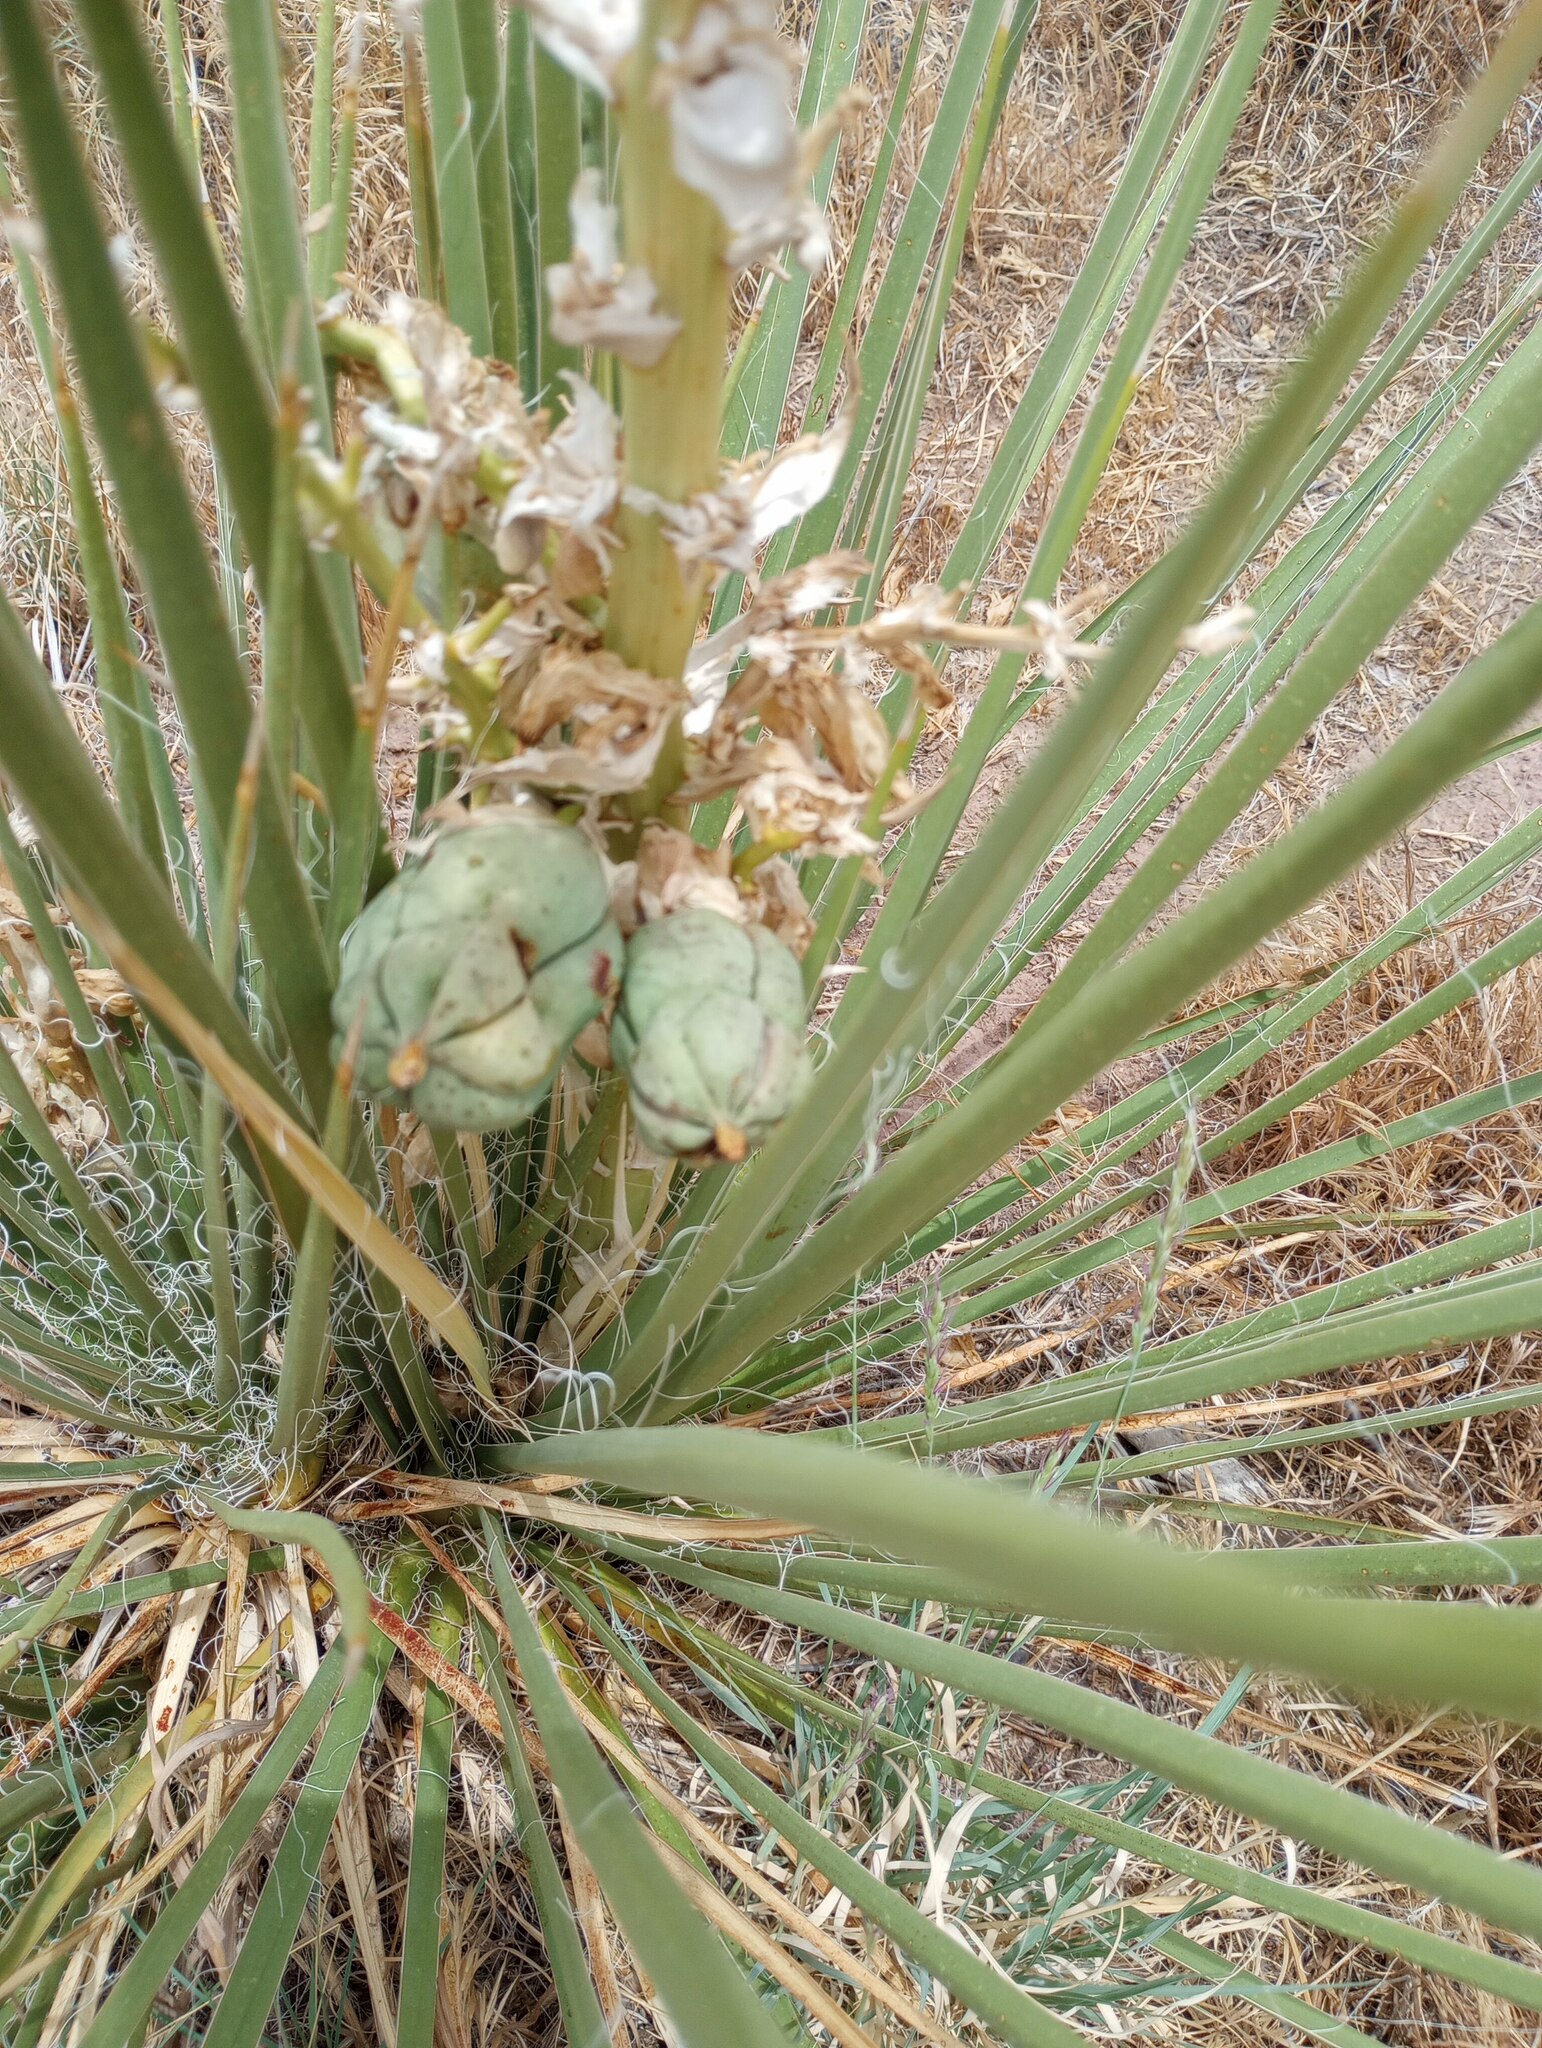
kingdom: Plantae
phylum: Tracheophyta
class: Liliopsida
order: Asparagales
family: Asparagaceae
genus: Yucca
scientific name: Yucca baileyi
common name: Alpine yucca
